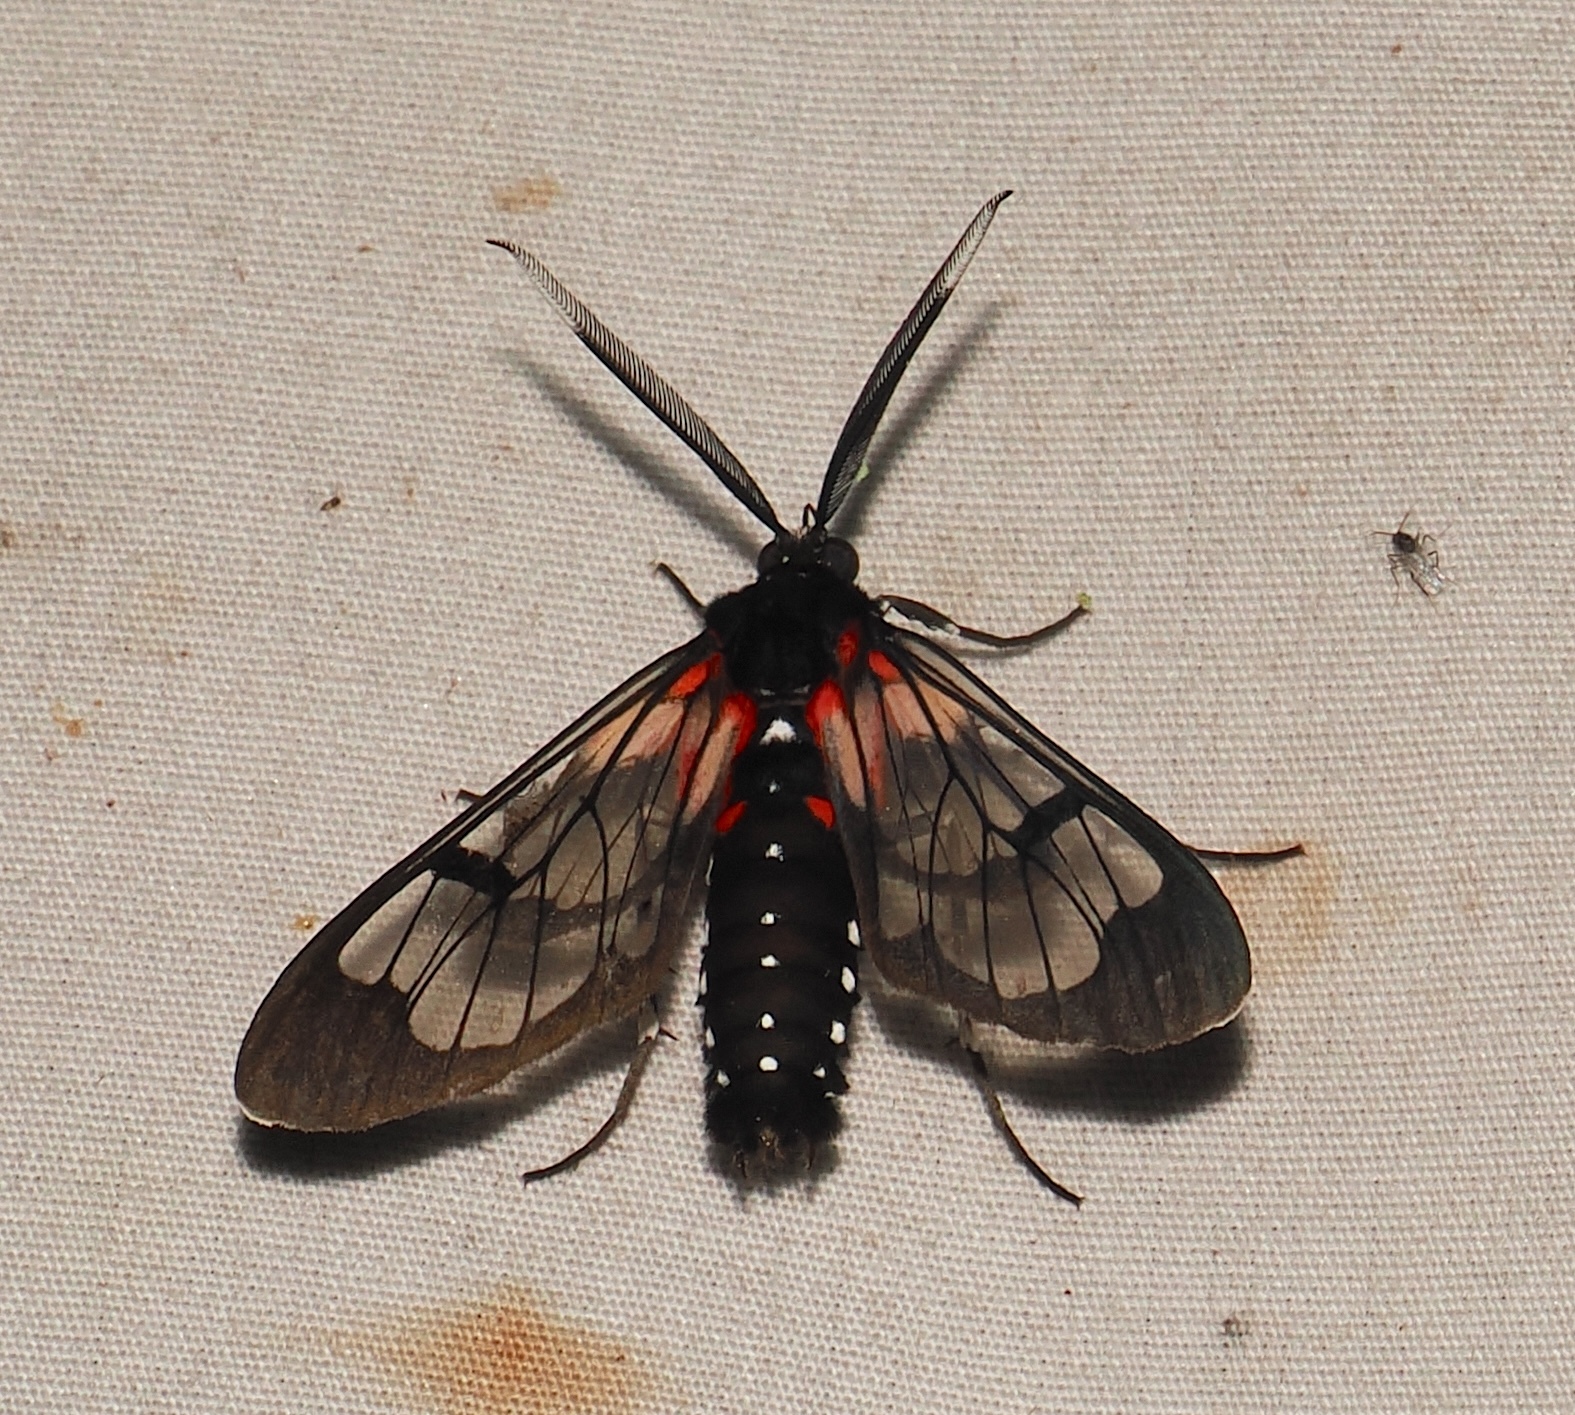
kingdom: Animalia
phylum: Arthropoda
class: Insecta
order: Lepidoptera
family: Erebidae
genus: Cosmosoma
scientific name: Cosmosoma Erruca cardinale
